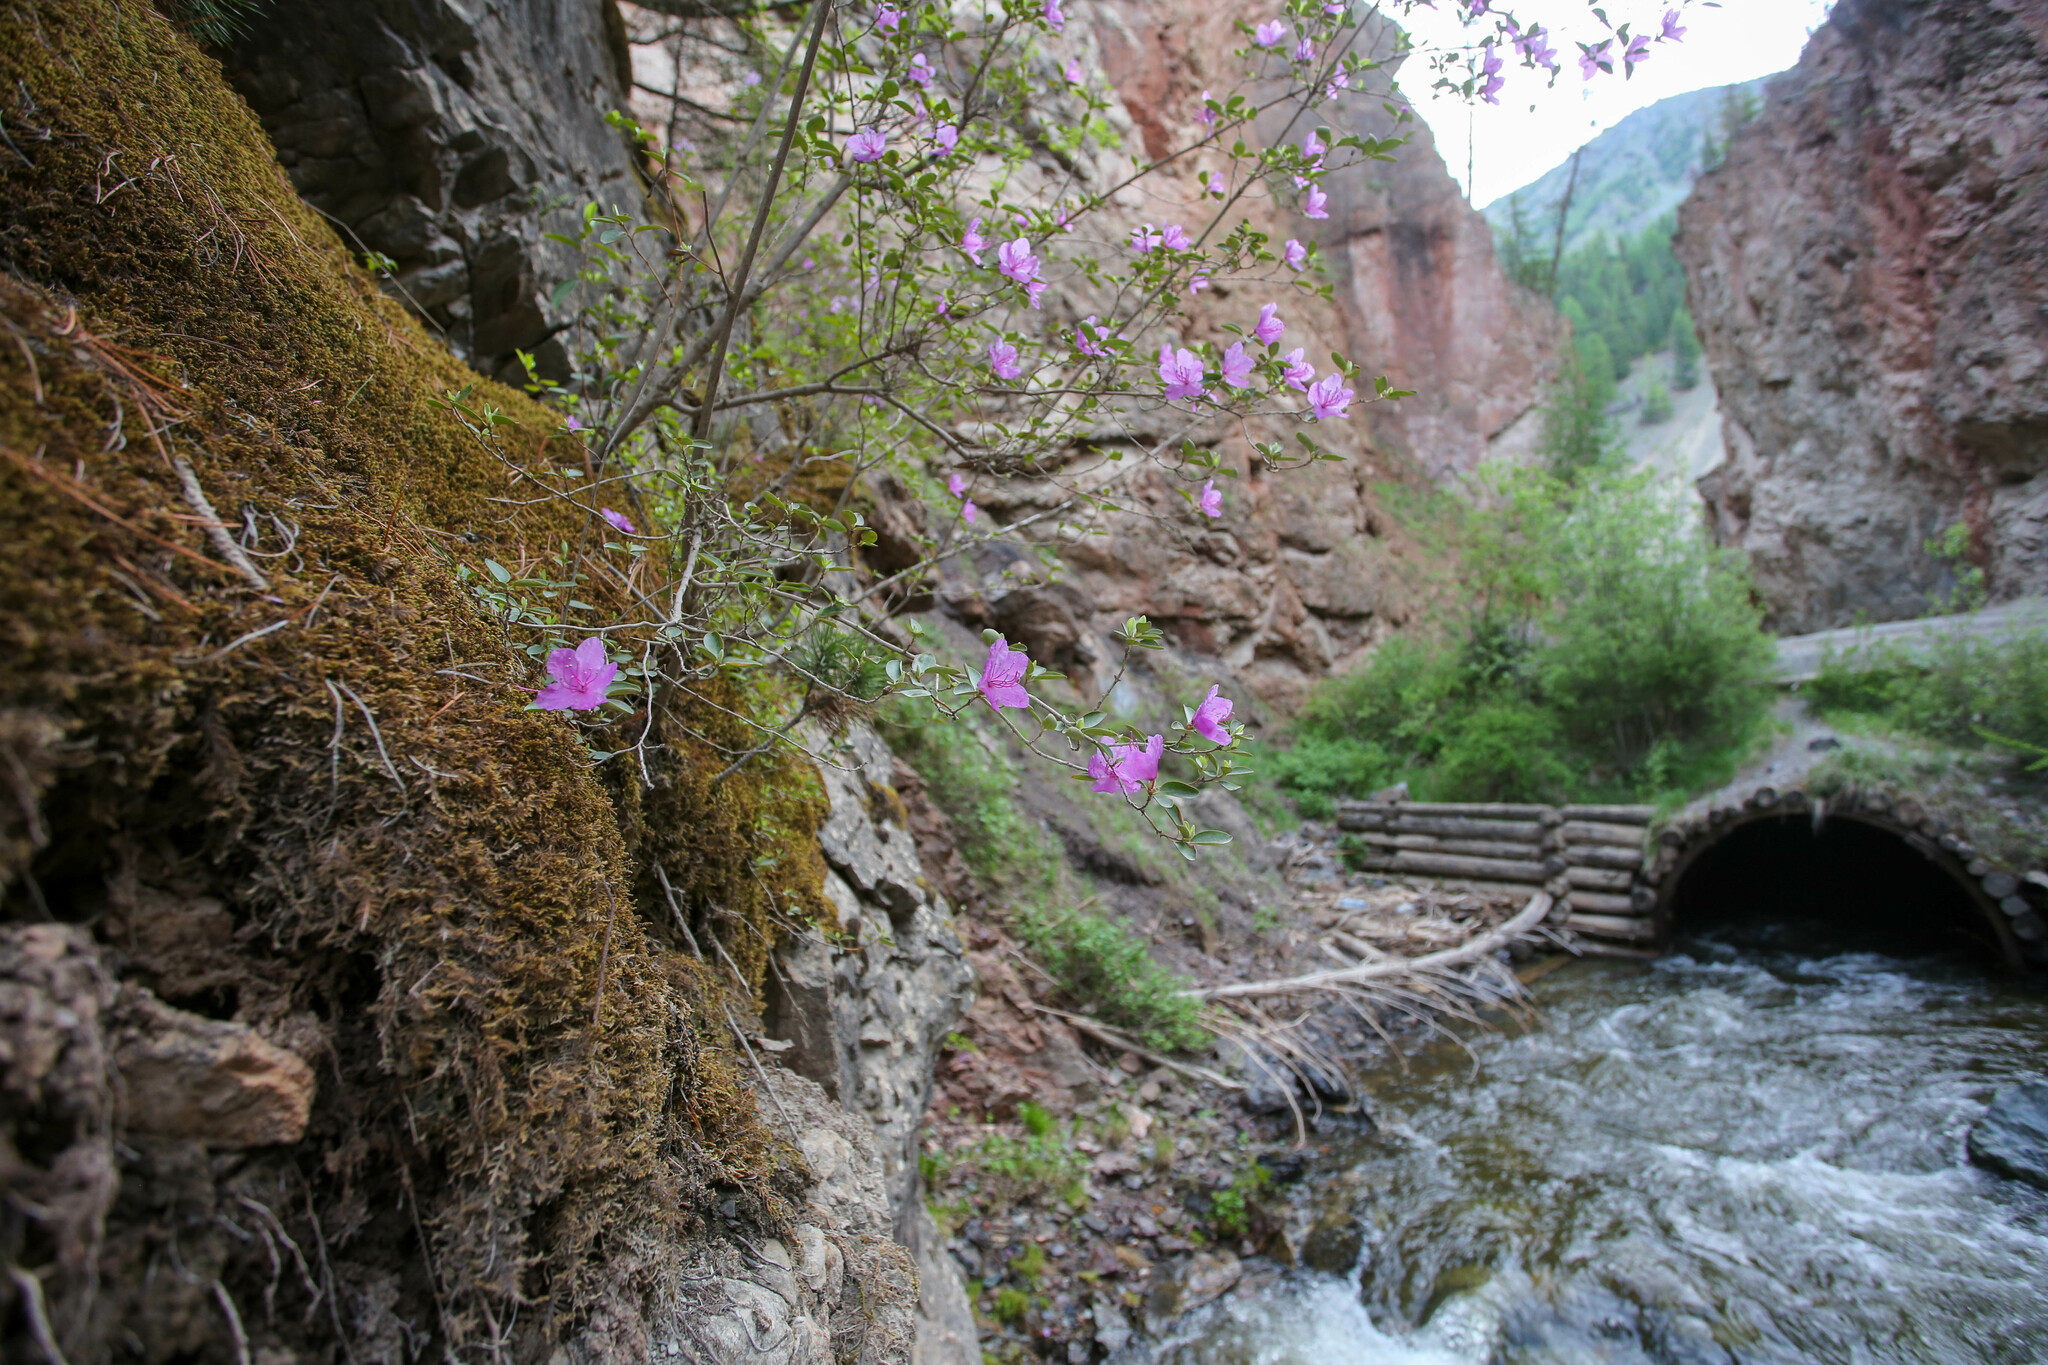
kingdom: Plantae
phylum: Tracheophyta
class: Magnoliopsida
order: Ericales
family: Ericaceae
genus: Rhododendron
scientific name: Rhododendron dauricum
